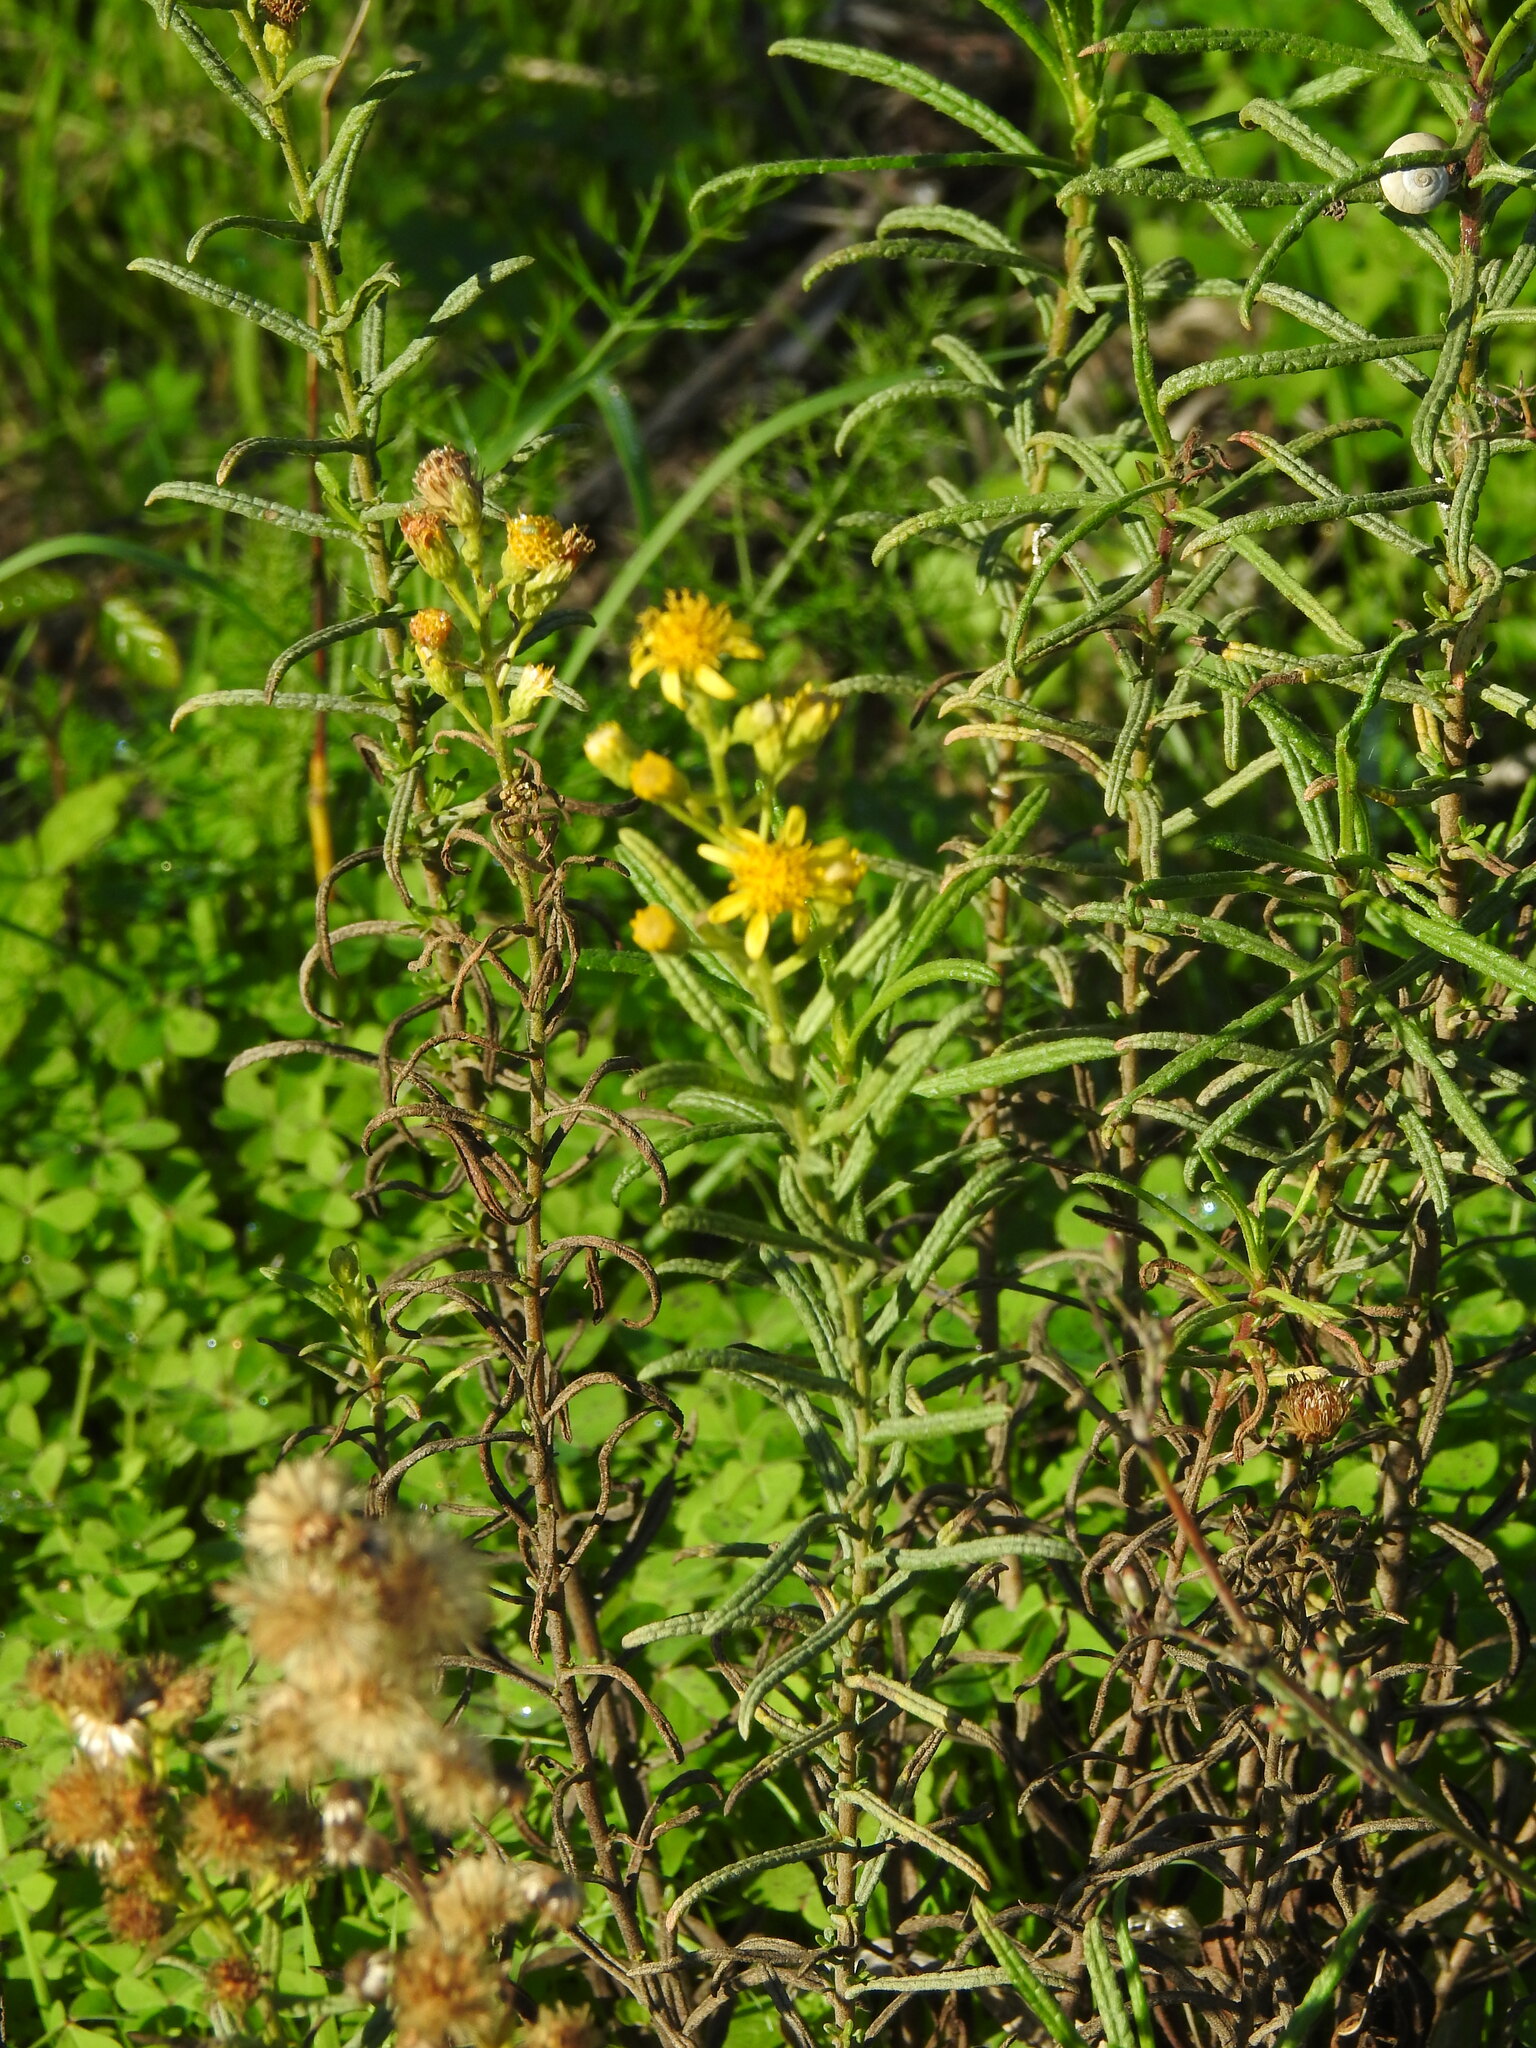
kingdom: Plantae
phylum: Tracheophyta
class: Magnoliopsida
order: Asterales
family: Asteraceae
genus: Dittrichia
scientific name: Dittrichia viscosa
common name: Woody fleabane
